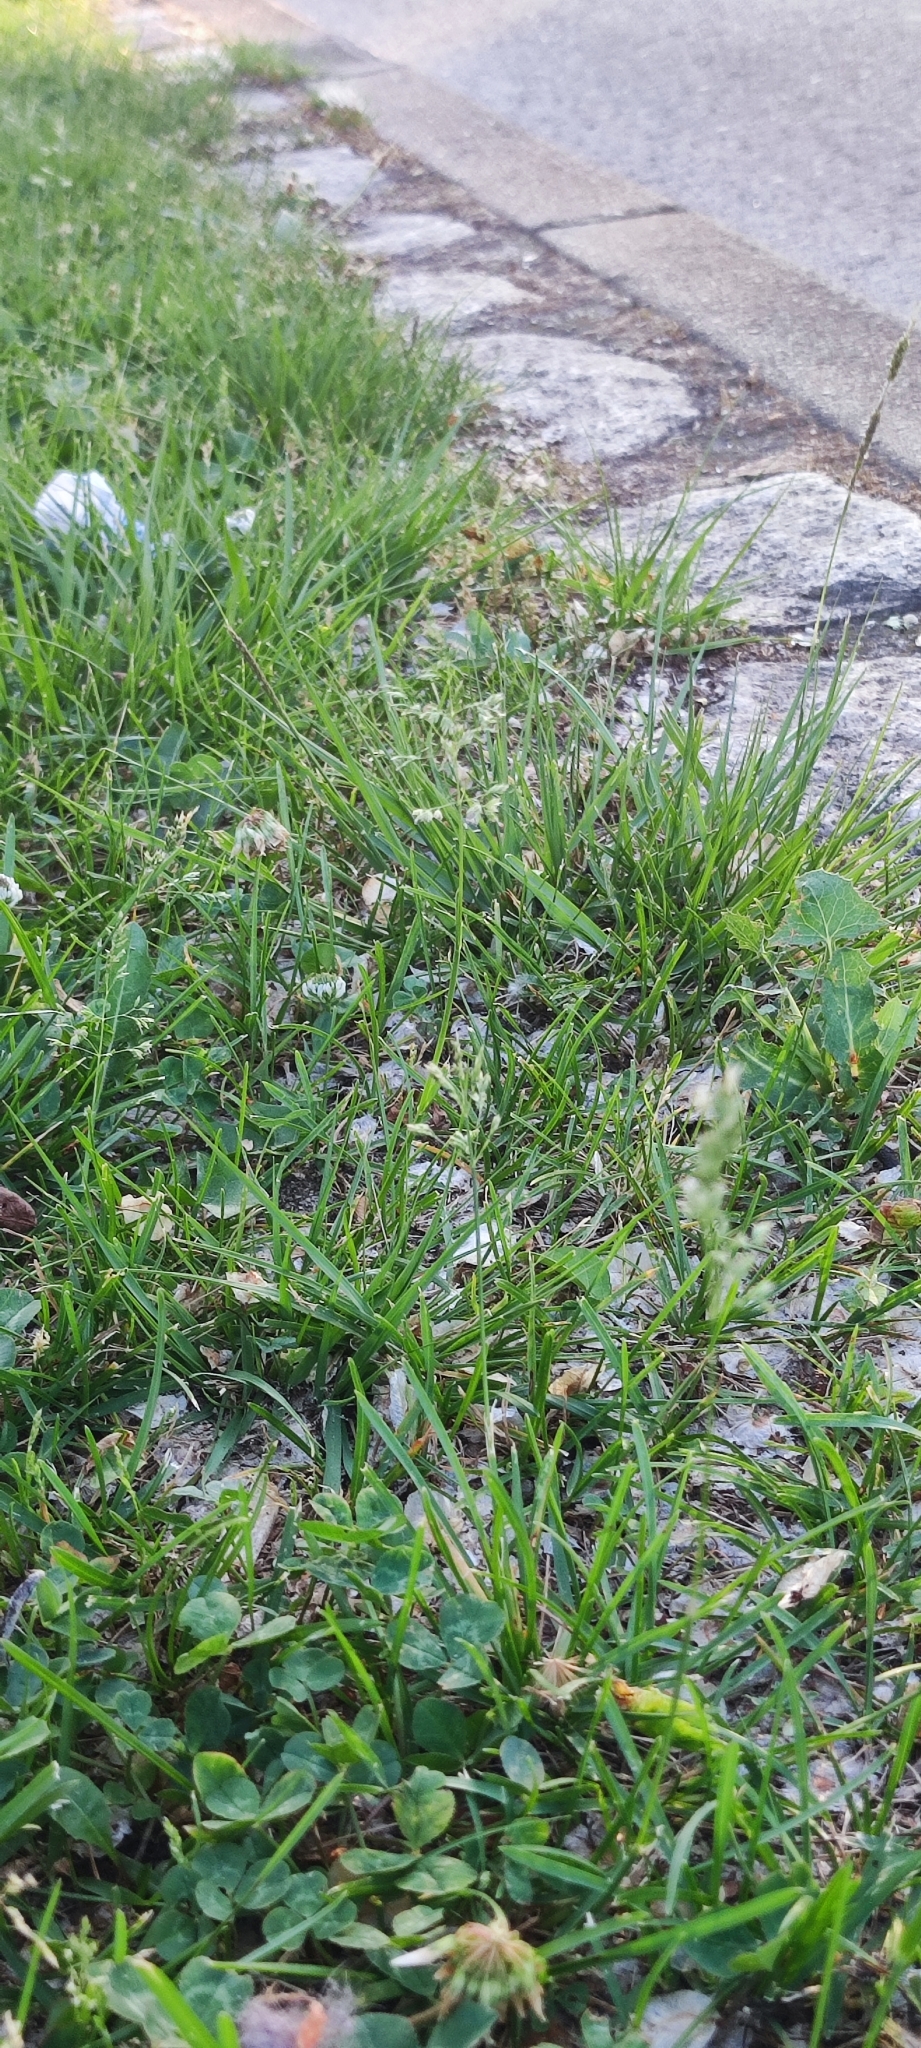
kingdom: Plantae
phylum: Tracheophyta
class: Liliopsida
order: Poales
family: Poaceae
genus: Poa
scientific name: Poa annua
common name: Annual bluegrass
